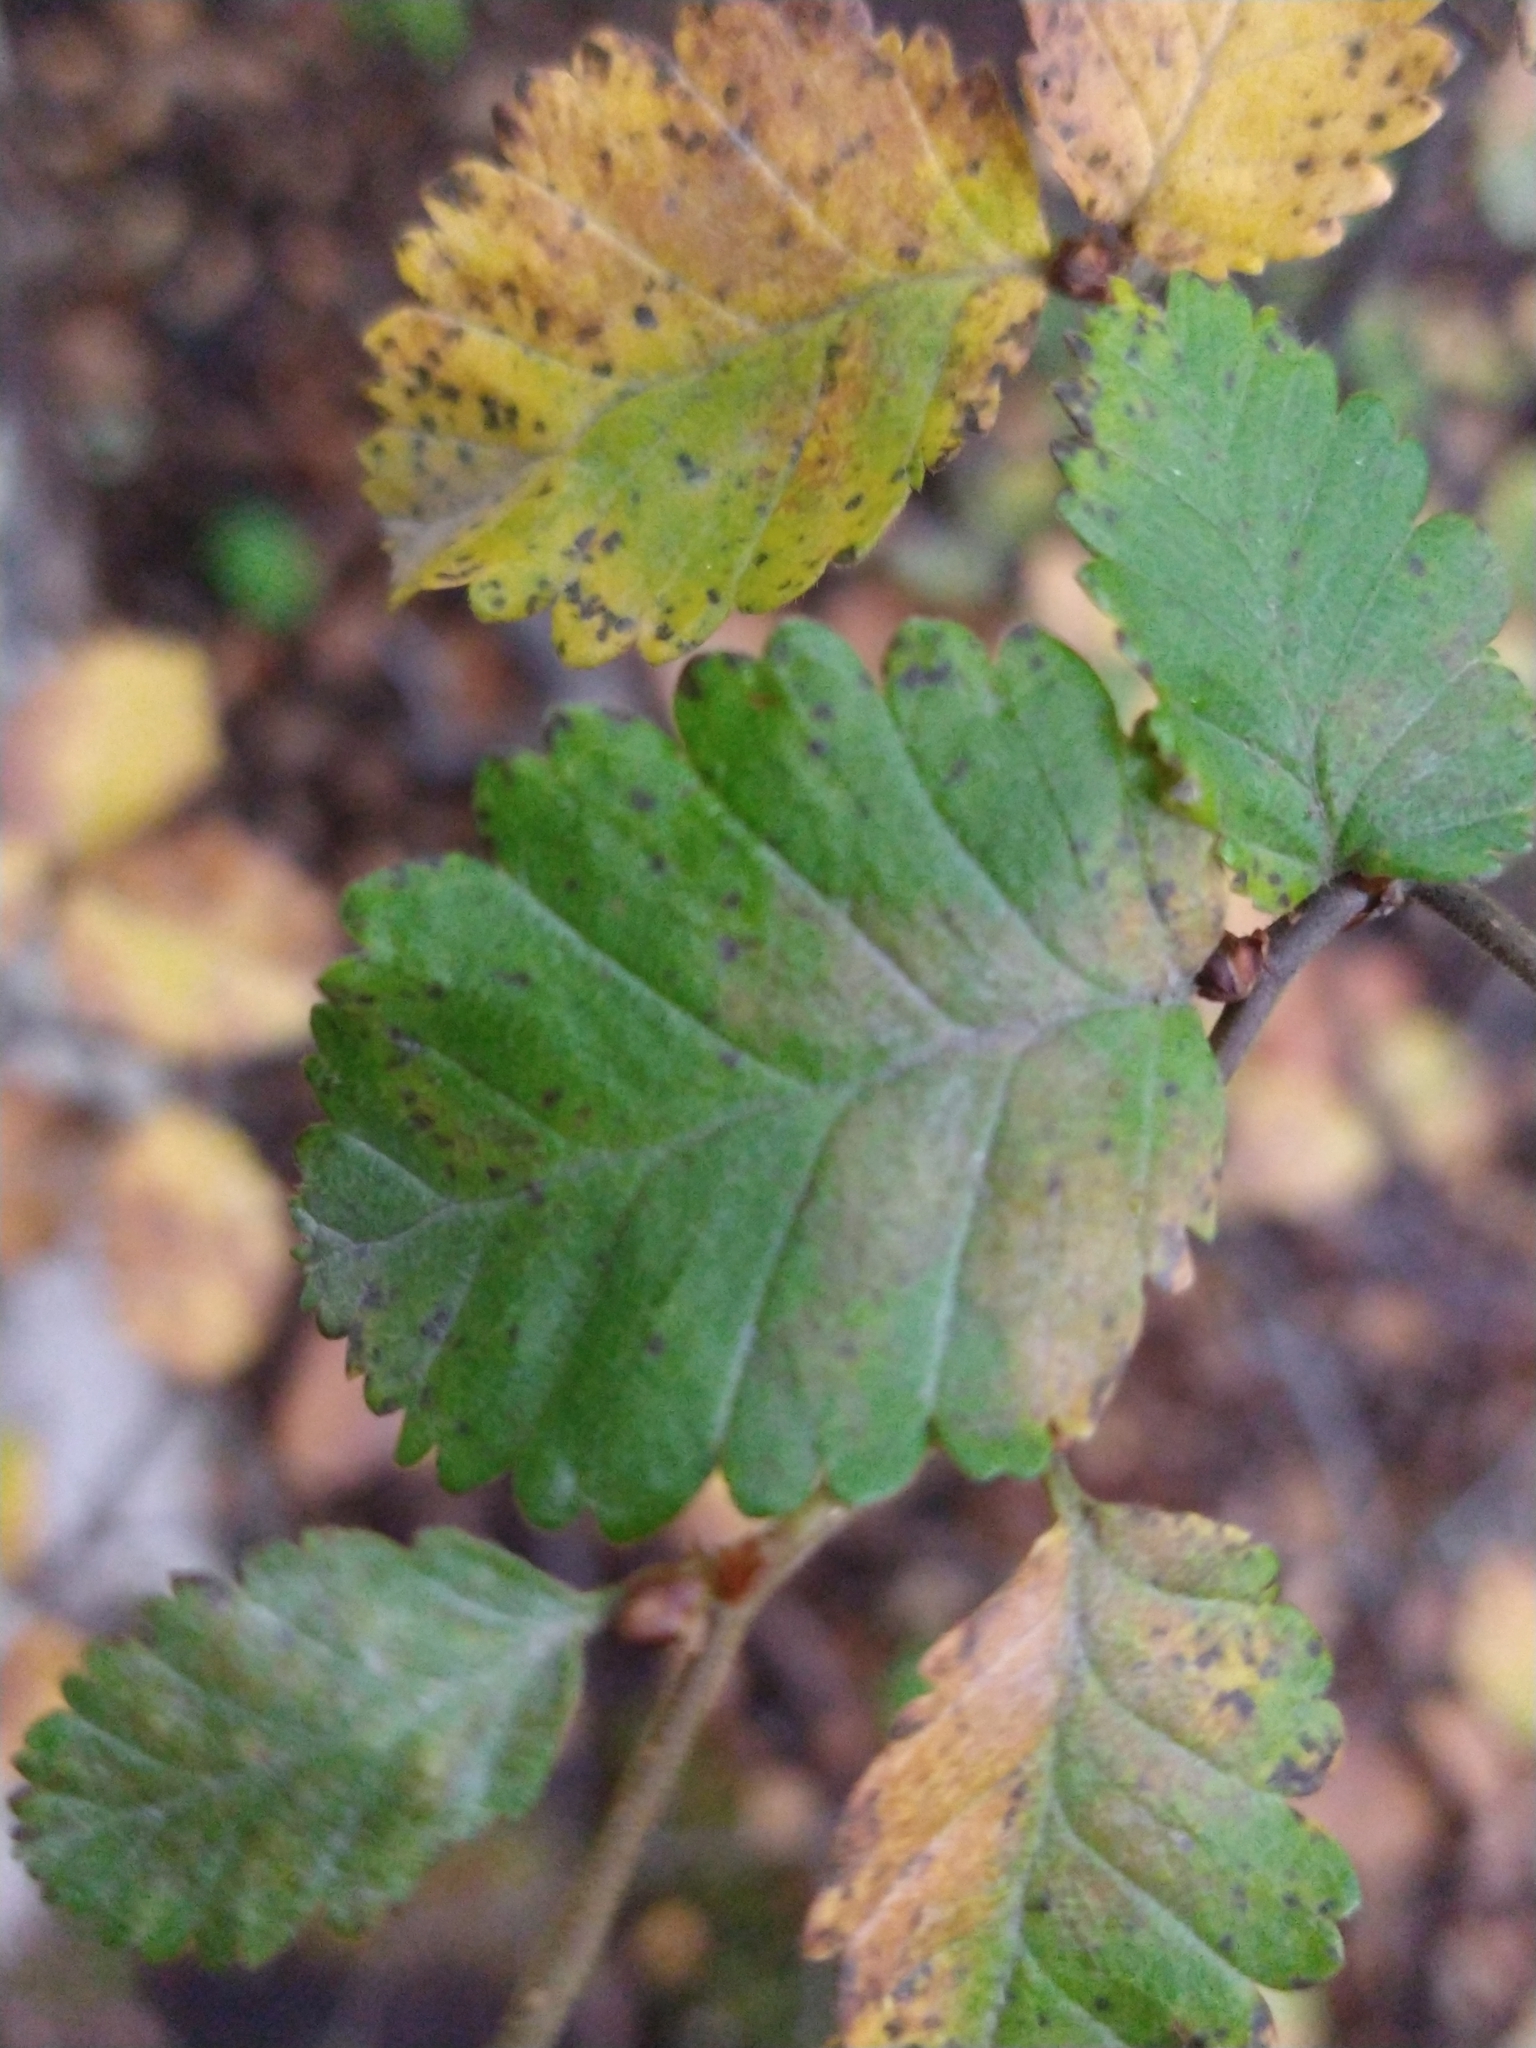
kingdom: Plantae
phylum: Tracheophyta
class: Magnoliopsida
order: Fagales
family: Nothofagaceae
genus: Nothofagus
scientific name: Nothofagus pumilio
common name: Lenga beech
